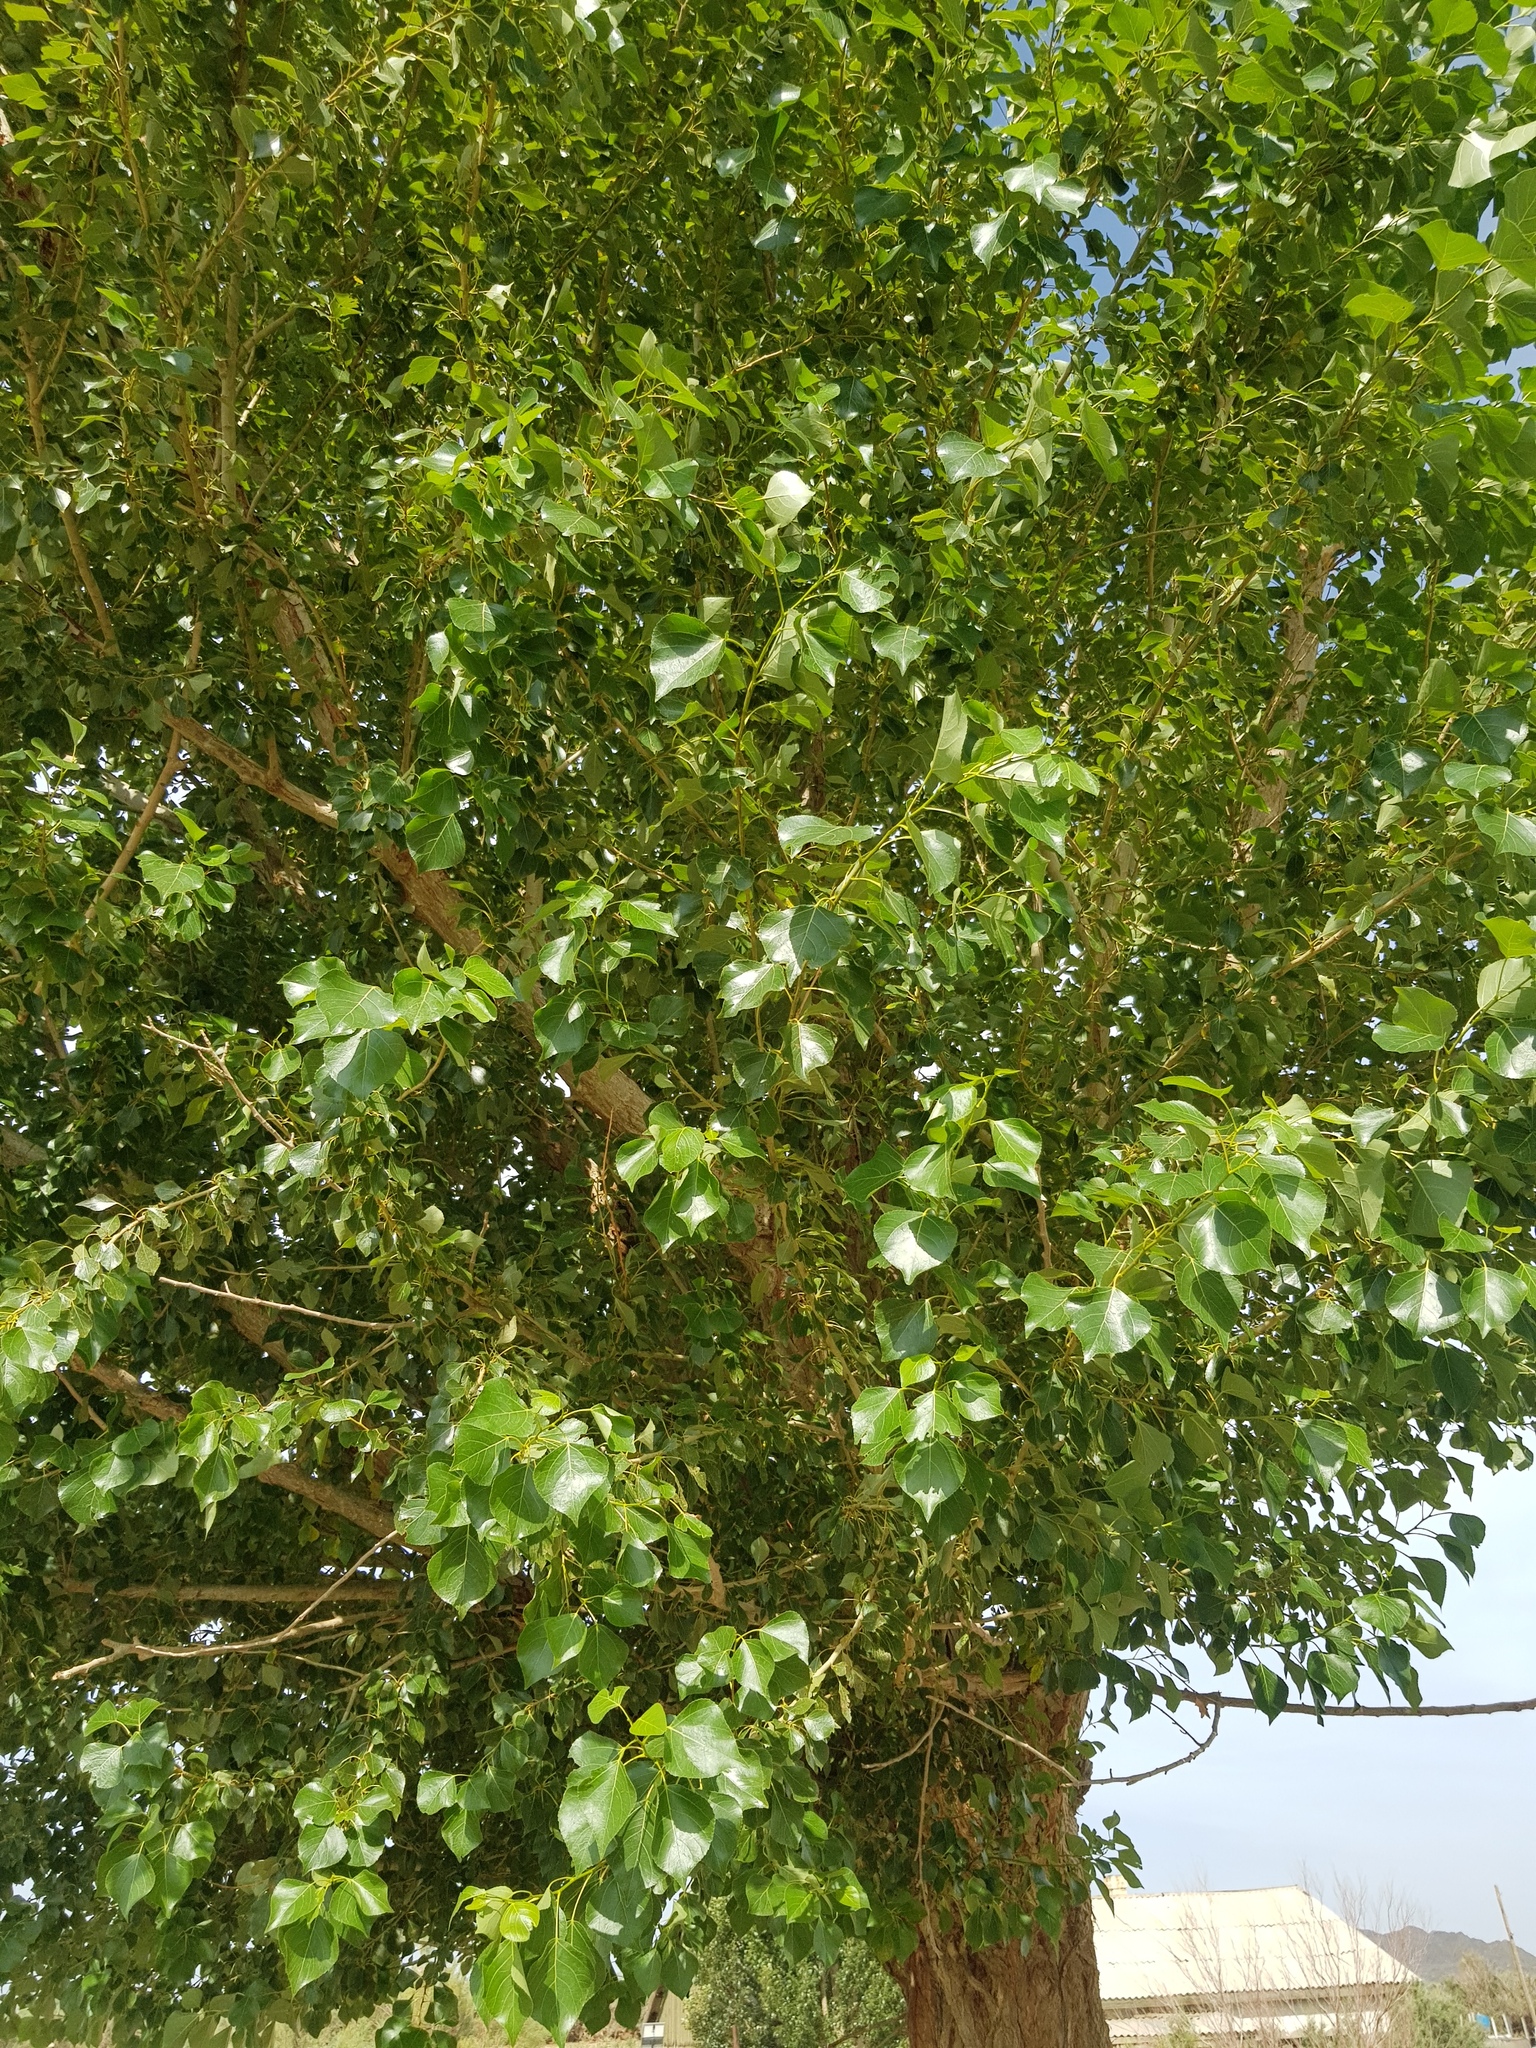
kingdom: Plantae
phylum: Tracheophyta
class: Magnoliopsida
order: Malpighiales
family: Salicaceae
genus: Populus
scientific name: Populus nigra
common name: Black poplar
